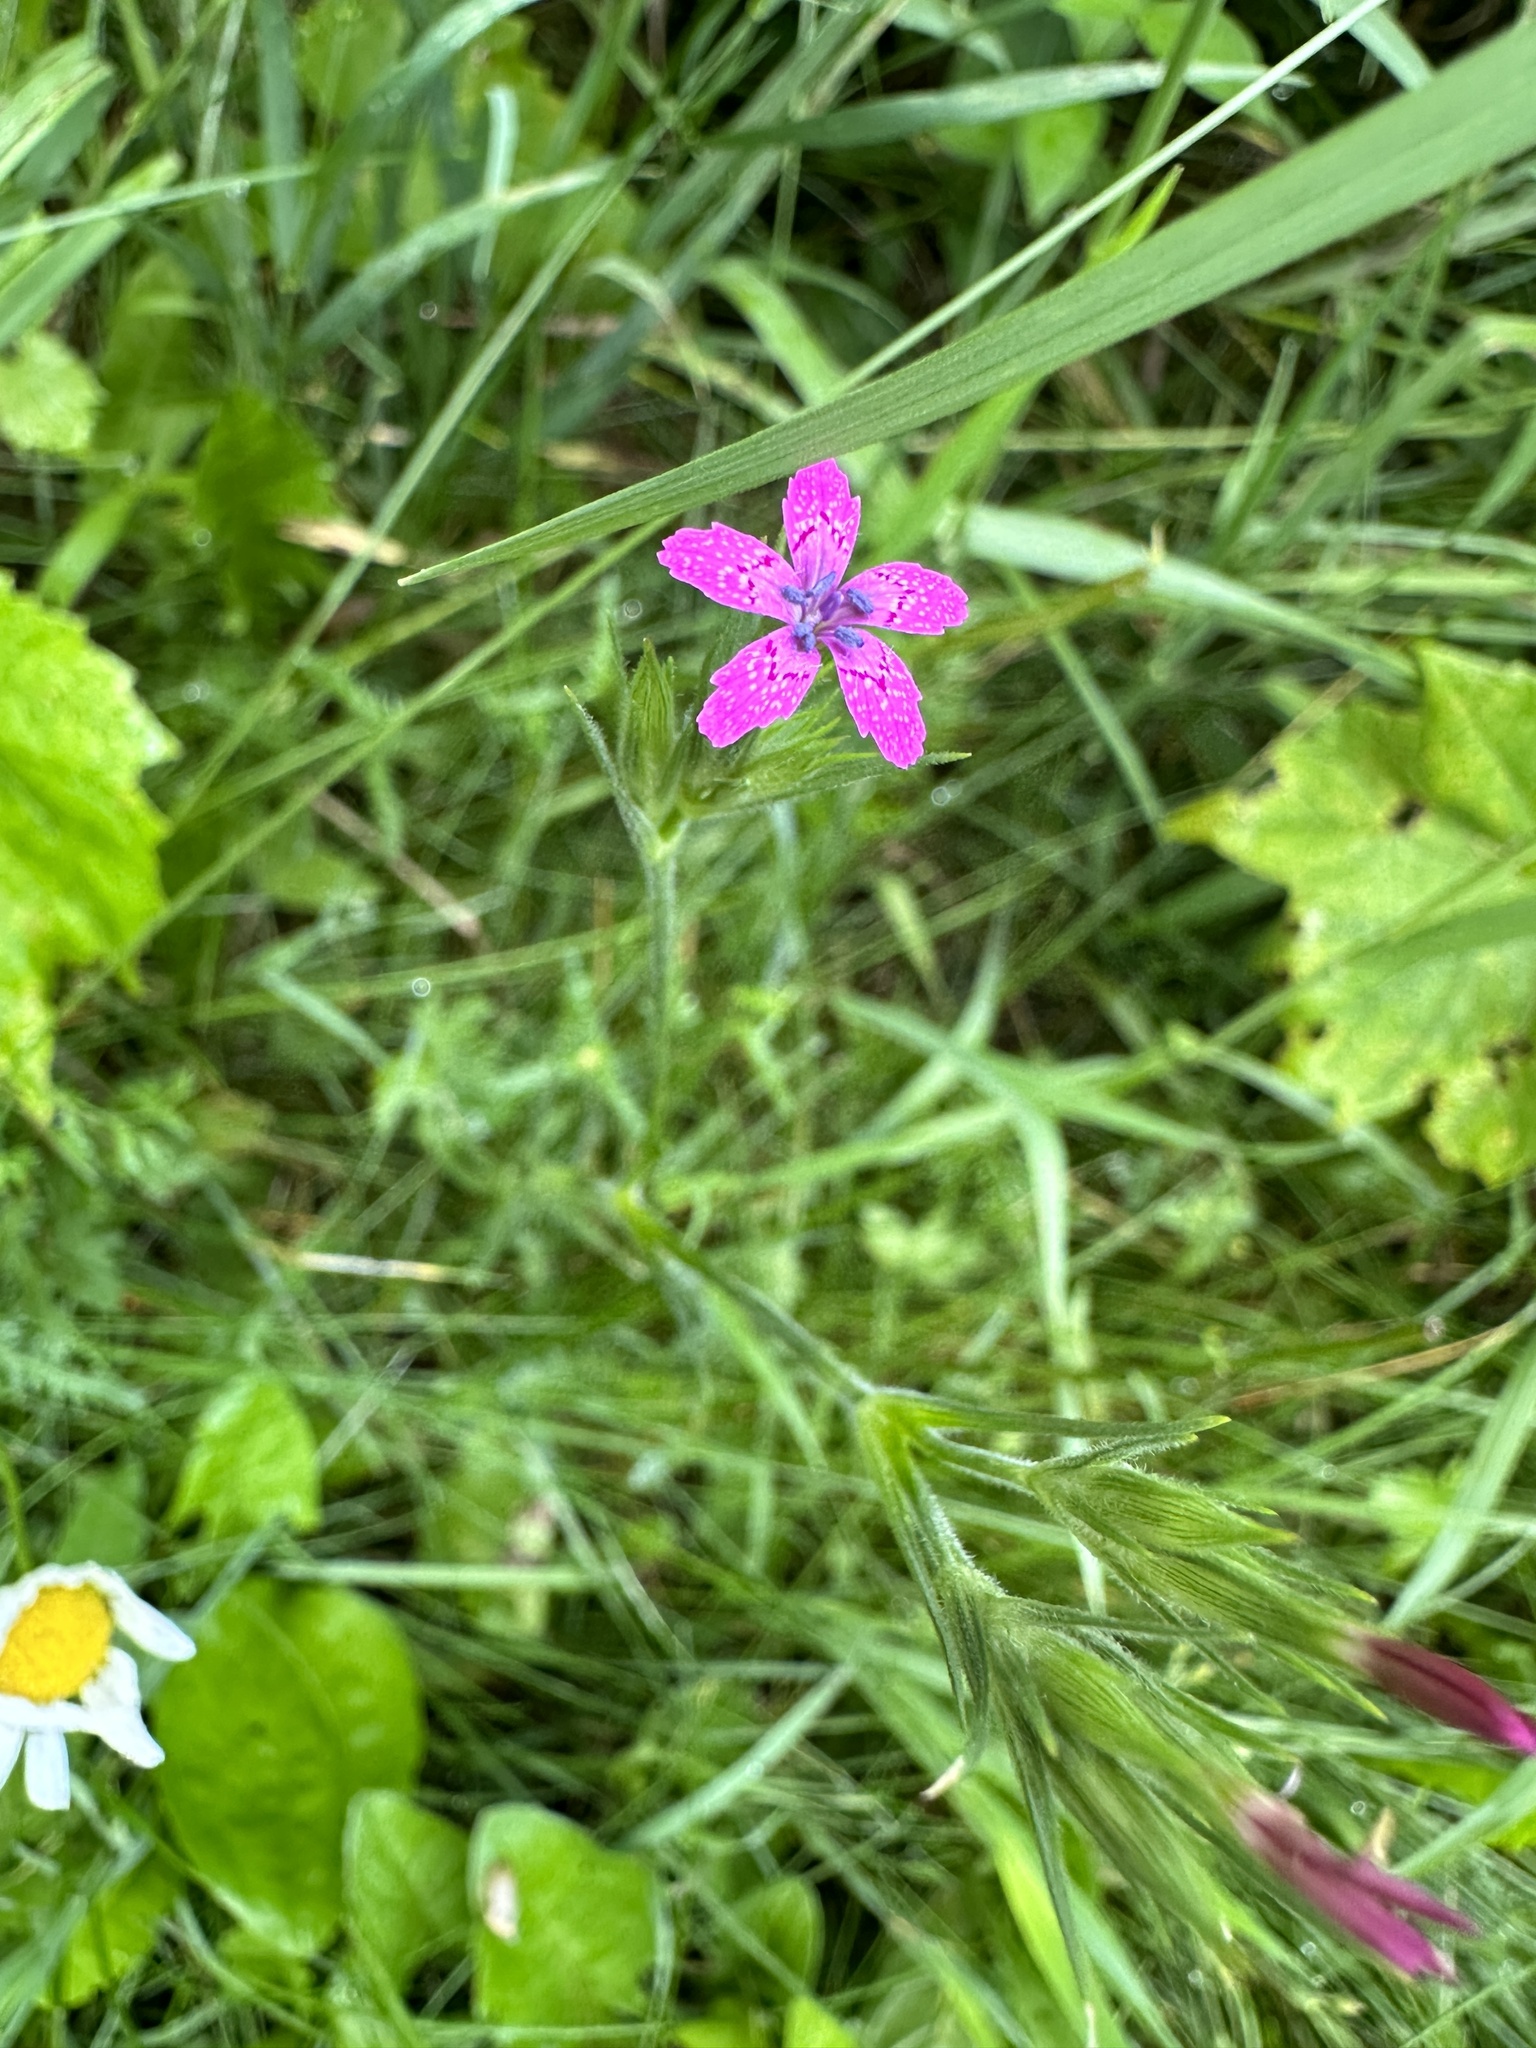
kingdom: Plantae
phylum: Tracheophyta
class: Magnoliopsida
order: Caryophyllales
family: Caryophyllaceae
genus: Dianthus
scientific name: Dianthus armeria
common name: Deptford pink
